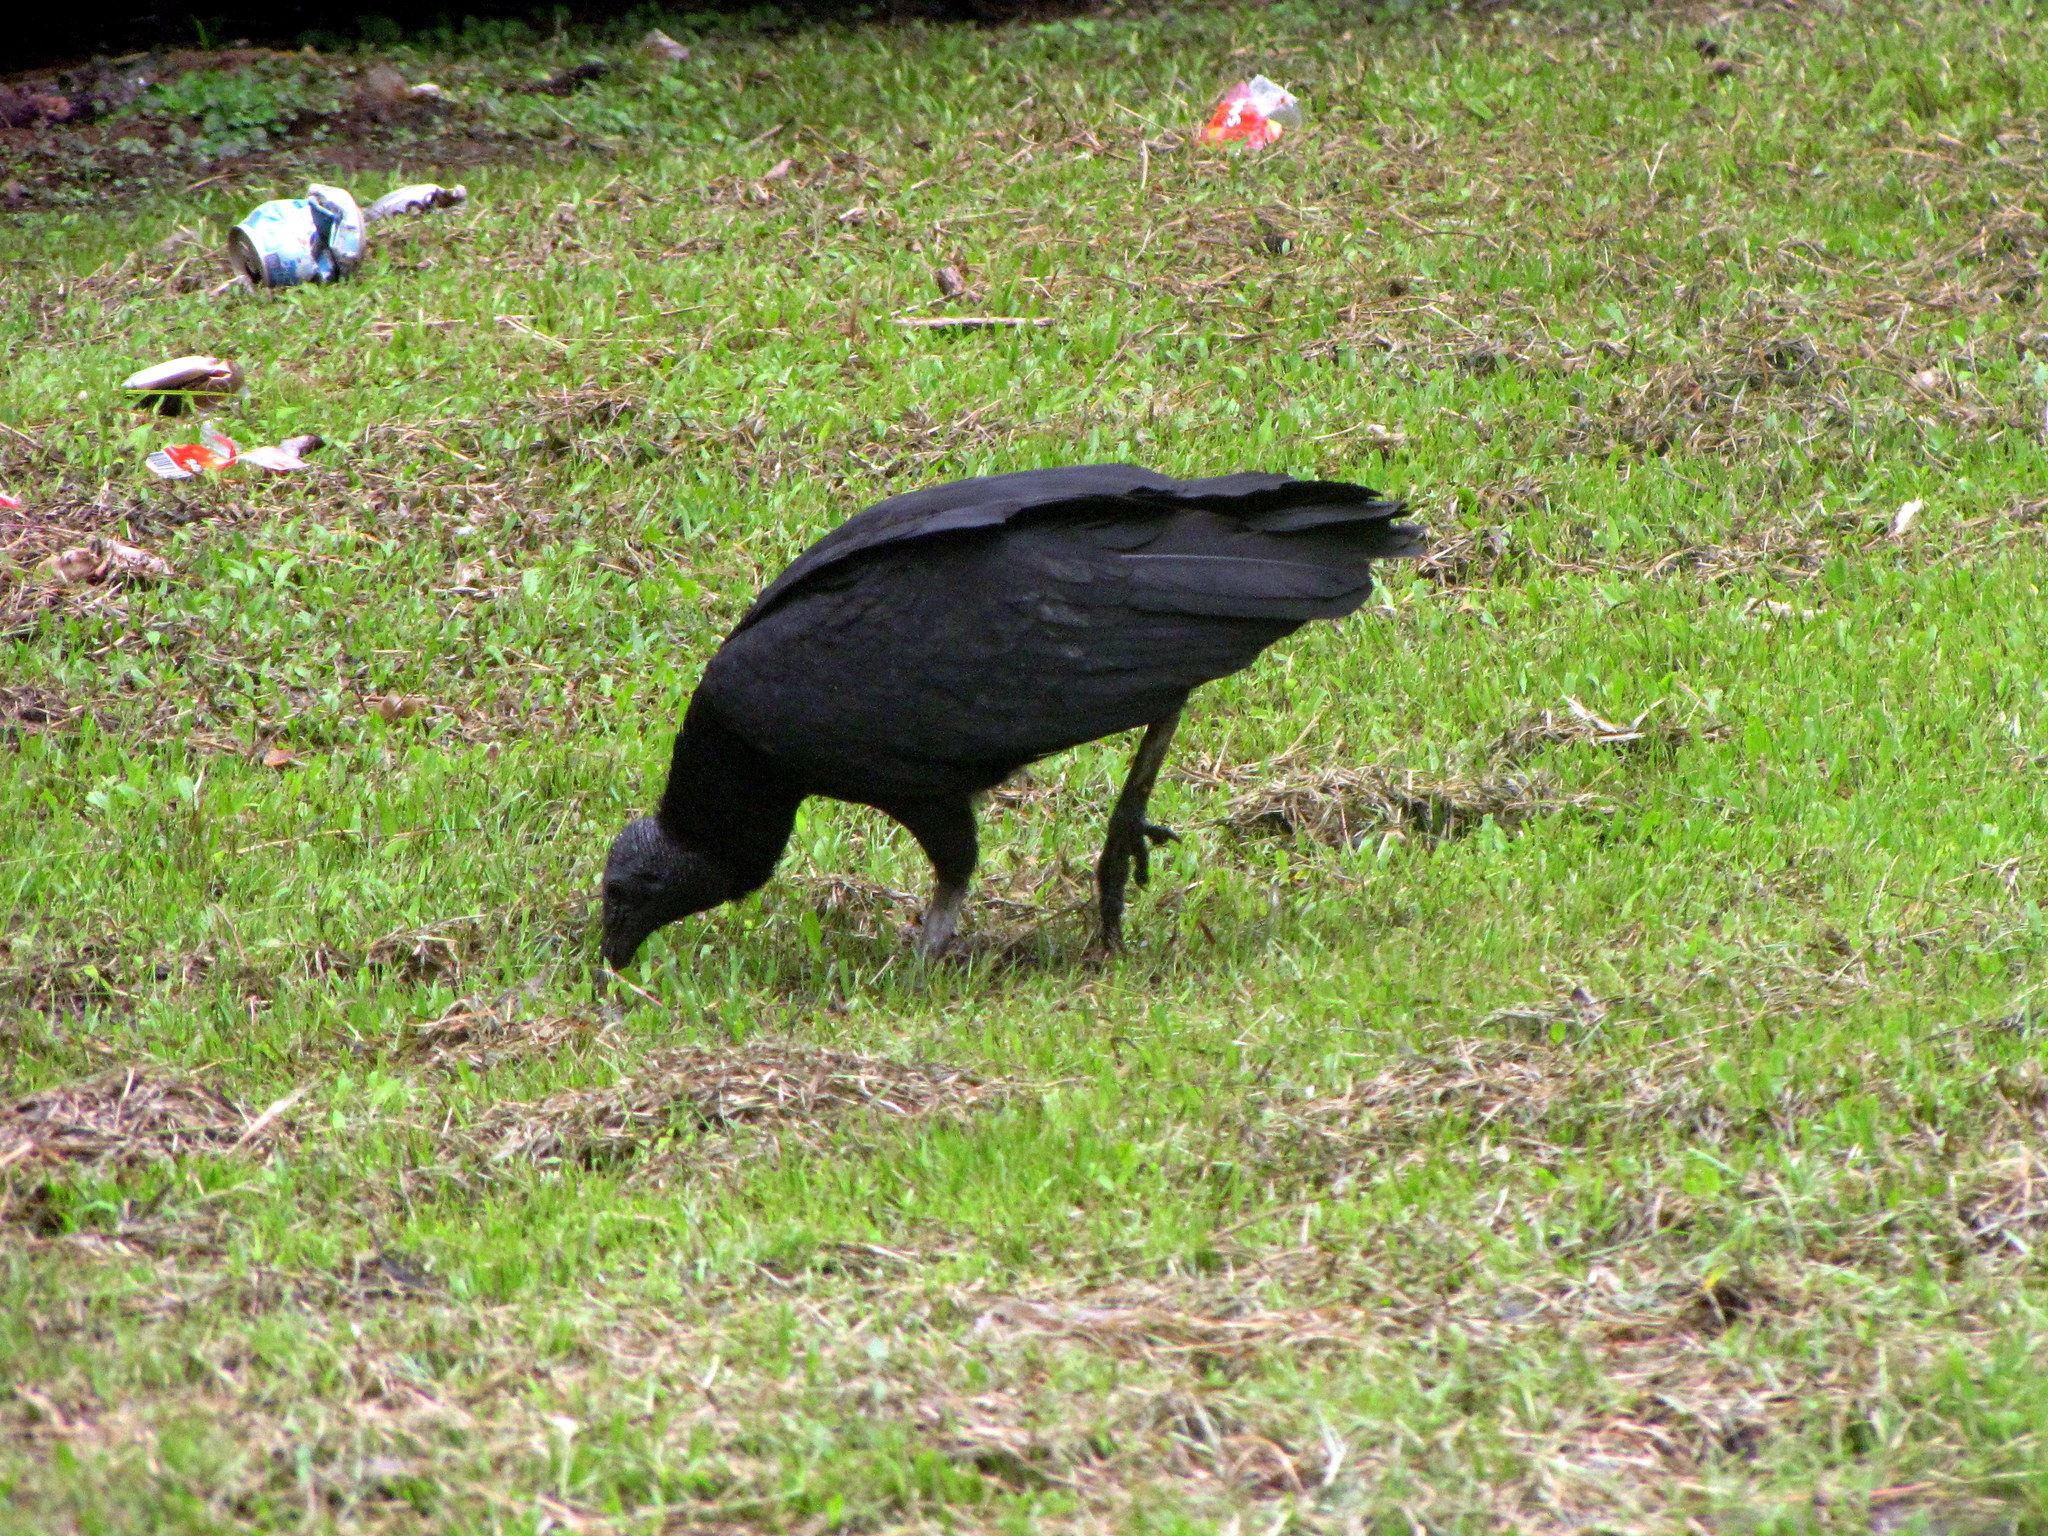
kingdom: Animalia
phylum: Chordata
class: Aves
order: Accipitriformes
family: Cathartidae
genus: Coragyps
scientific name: Coragyps atratus
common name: Black vulture
